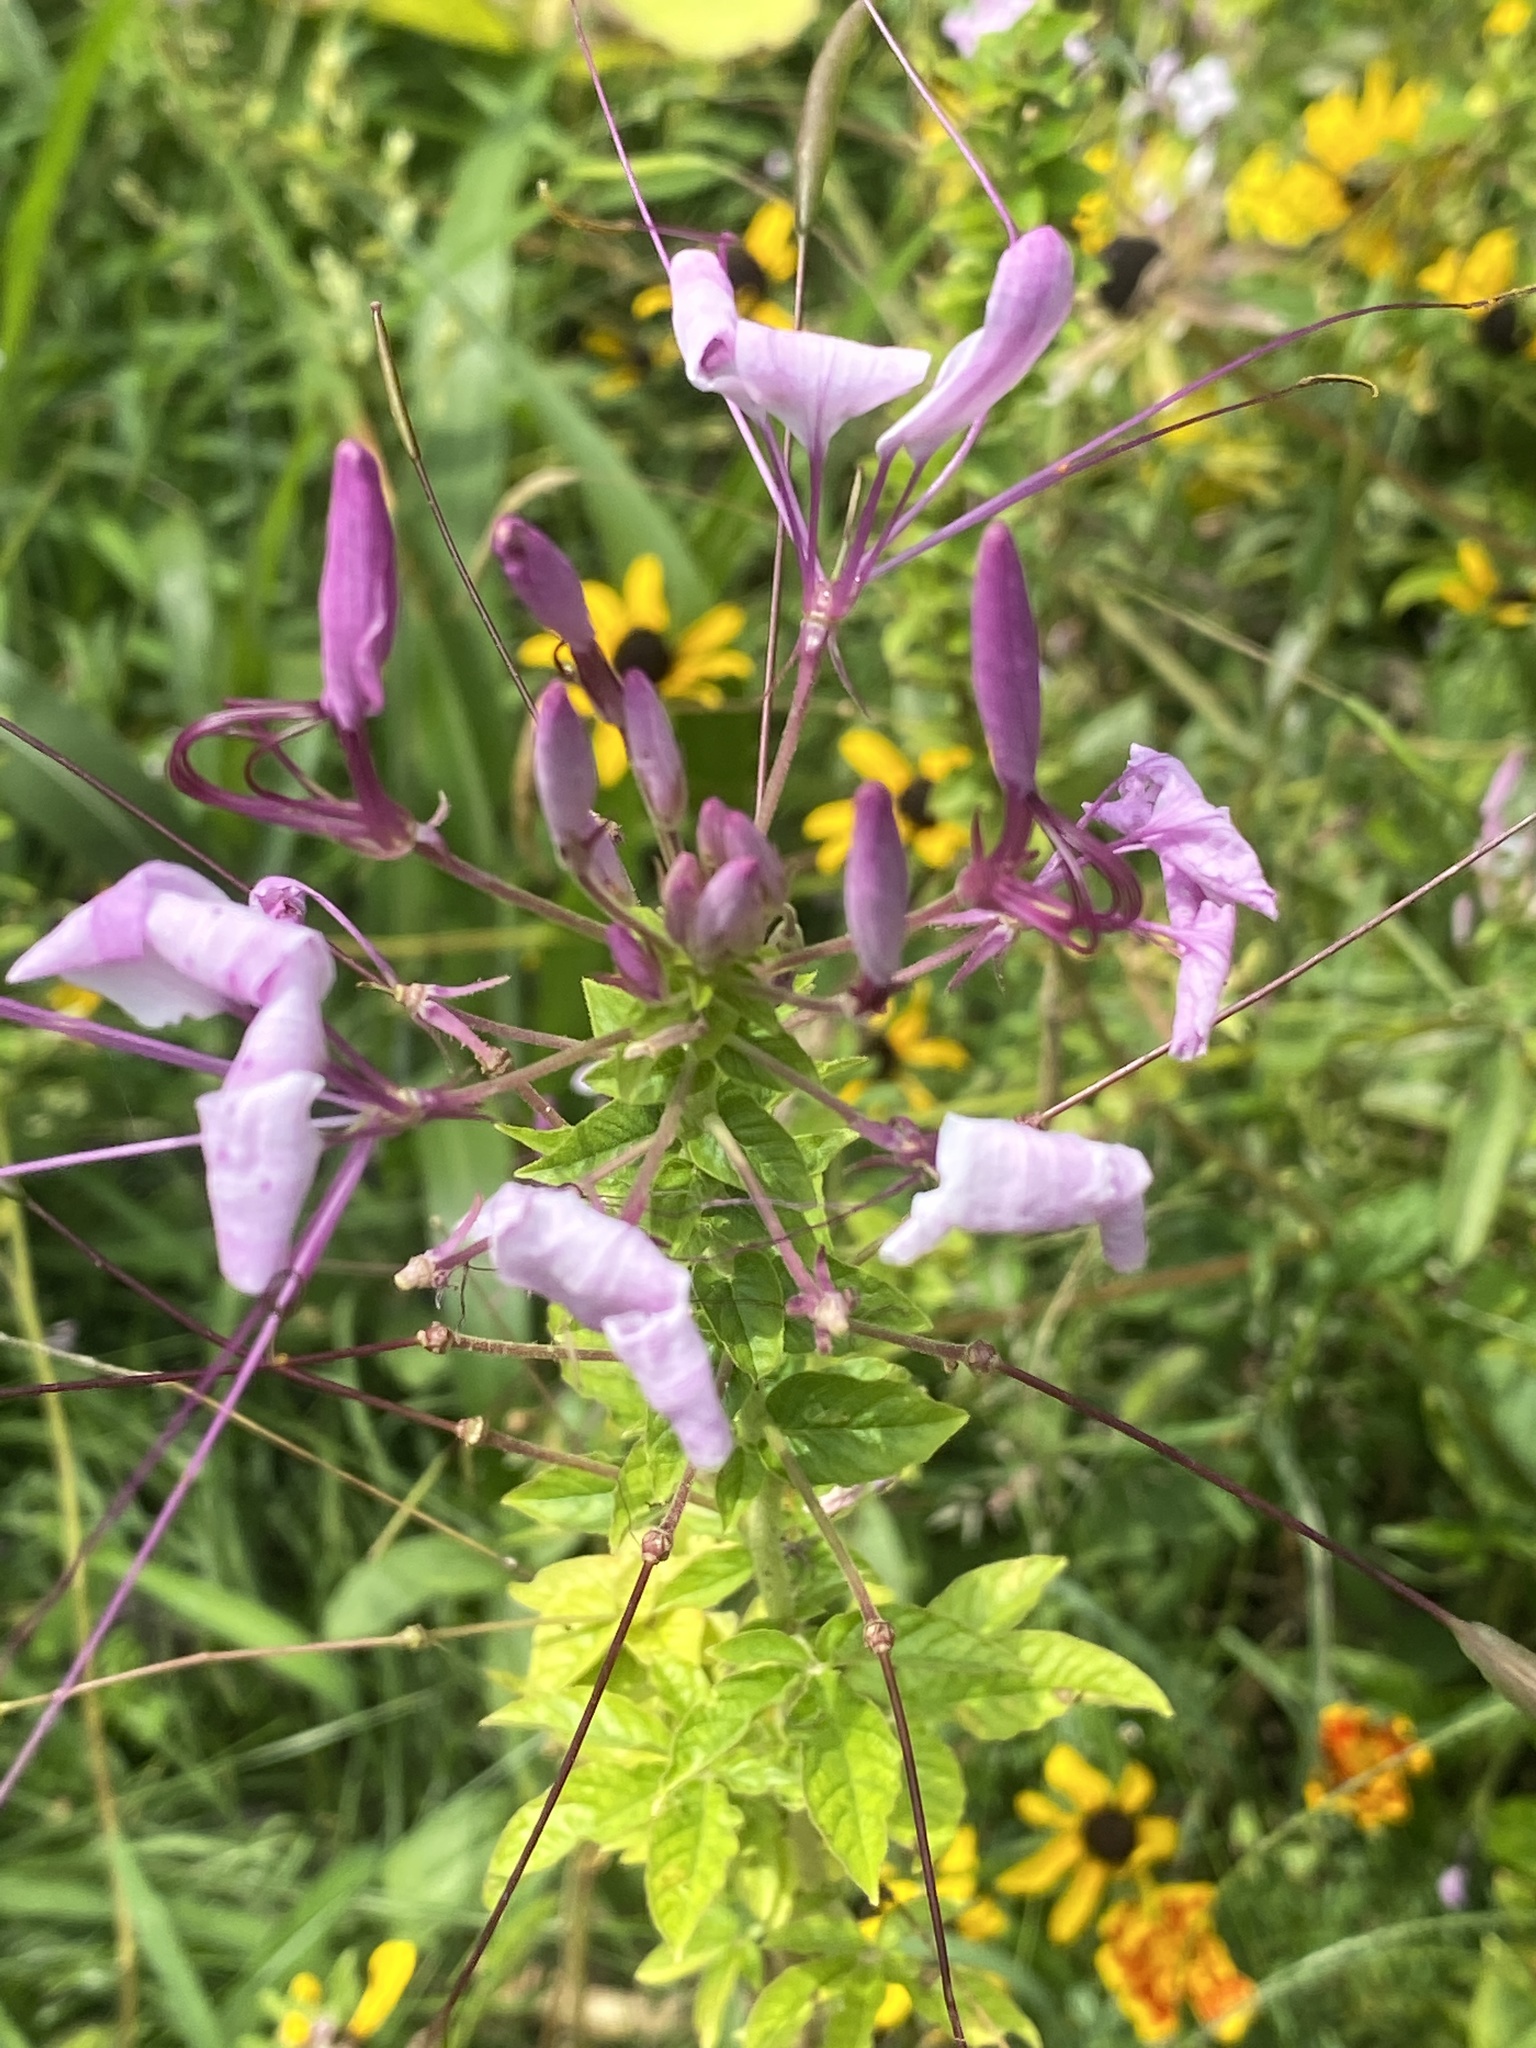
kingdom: Plantae
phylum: Tracheophyta
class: Magnoliopsida
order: Brassicales
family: Cleomaceae
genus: Tarenaya
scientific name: Tarenaya houtteana
